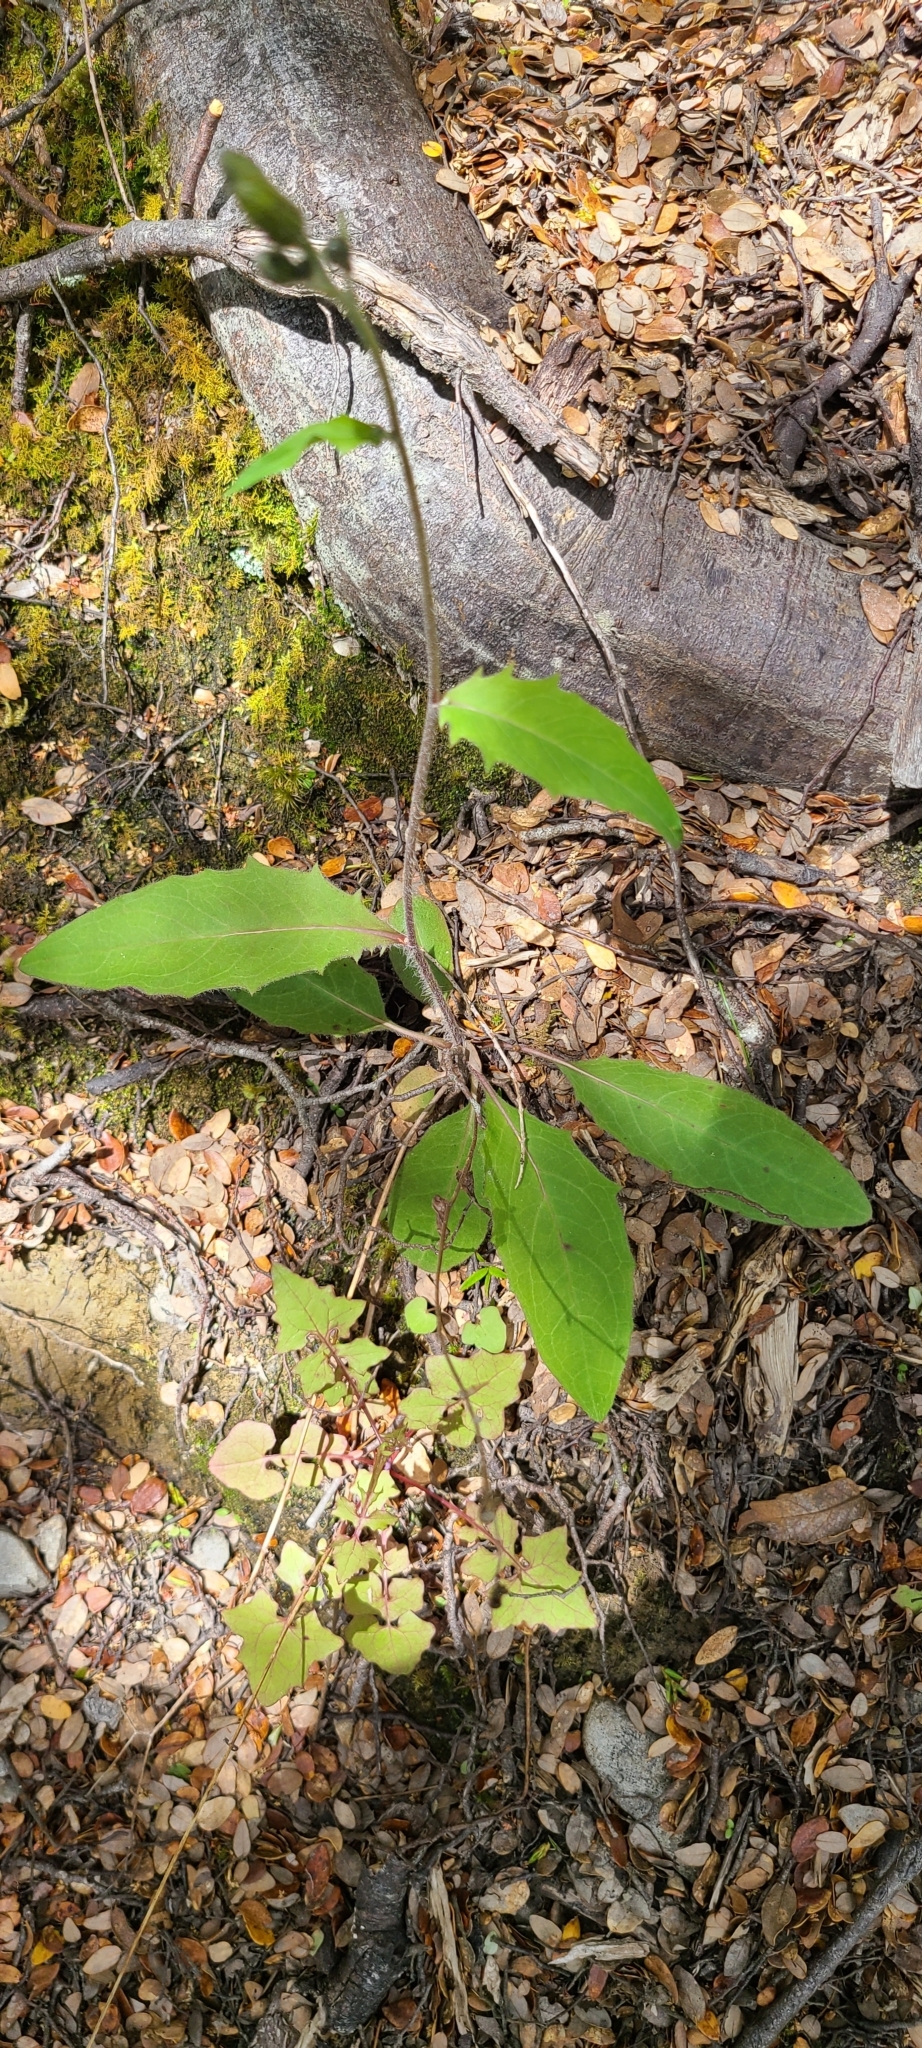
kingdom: Plantae
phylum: Tracheophyta
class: Magnoliopsida
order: Asterales
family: Asteraceae
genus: Hieracium
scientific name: Hieracium lepidulum
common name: Irregular-toothed hawkweed
